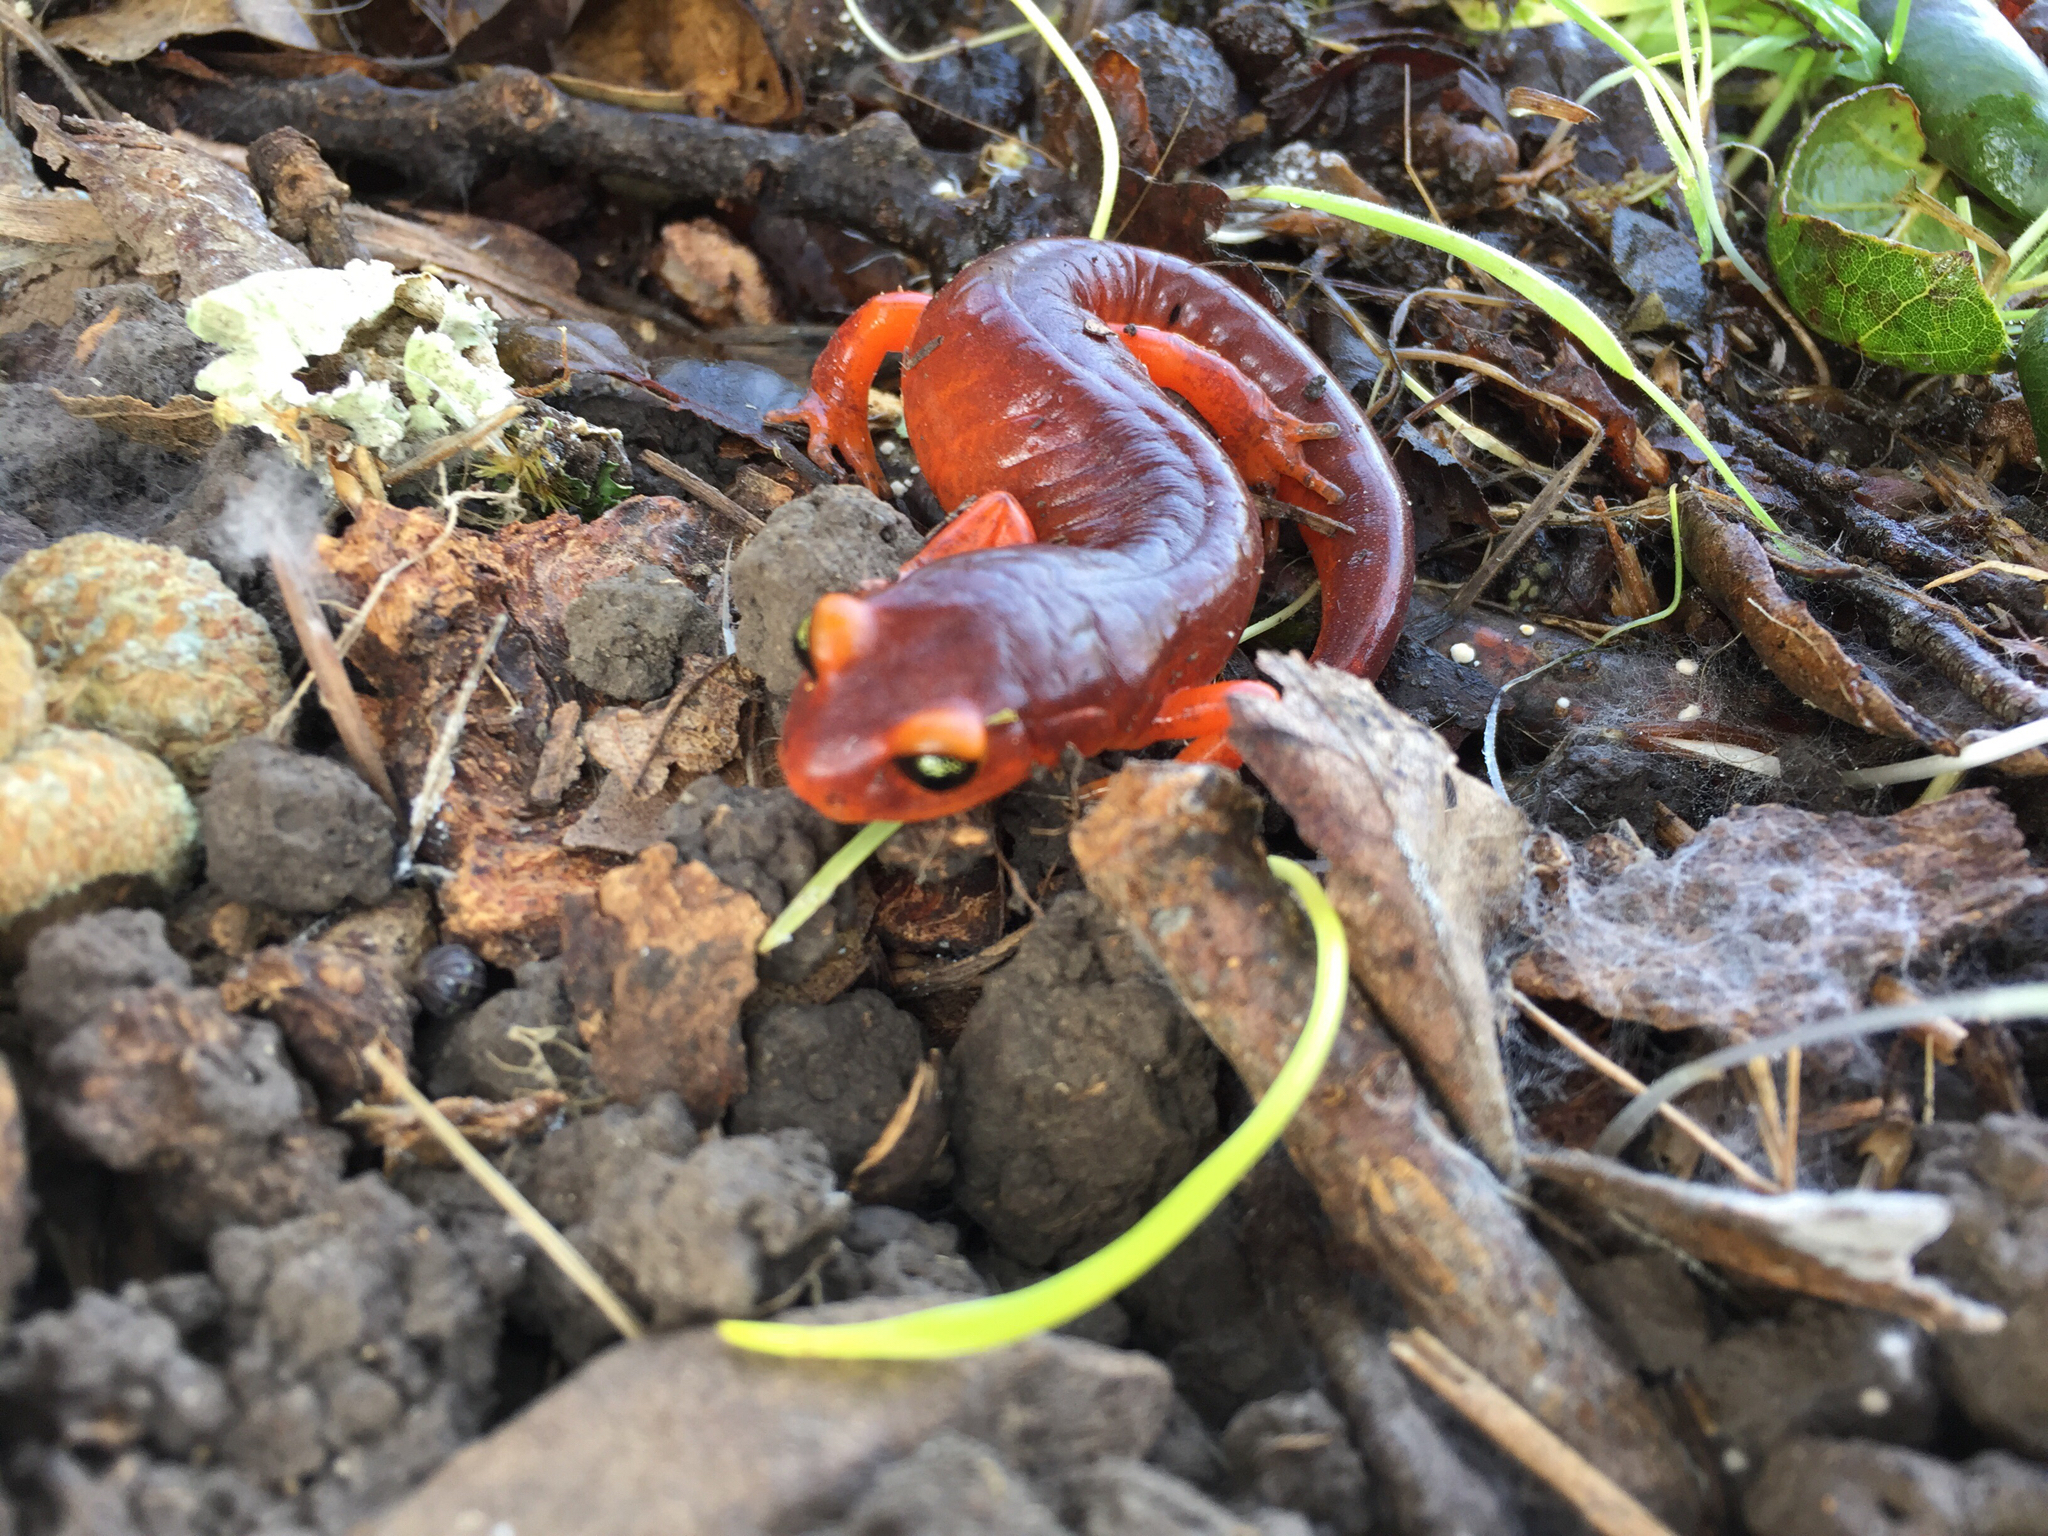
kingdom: Animalia
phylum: Chordata
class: Amphibia
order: Caudata
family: Plethodontidae
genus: Ensatina
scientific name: Ensatina eschscholtzii
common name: Ensatina
